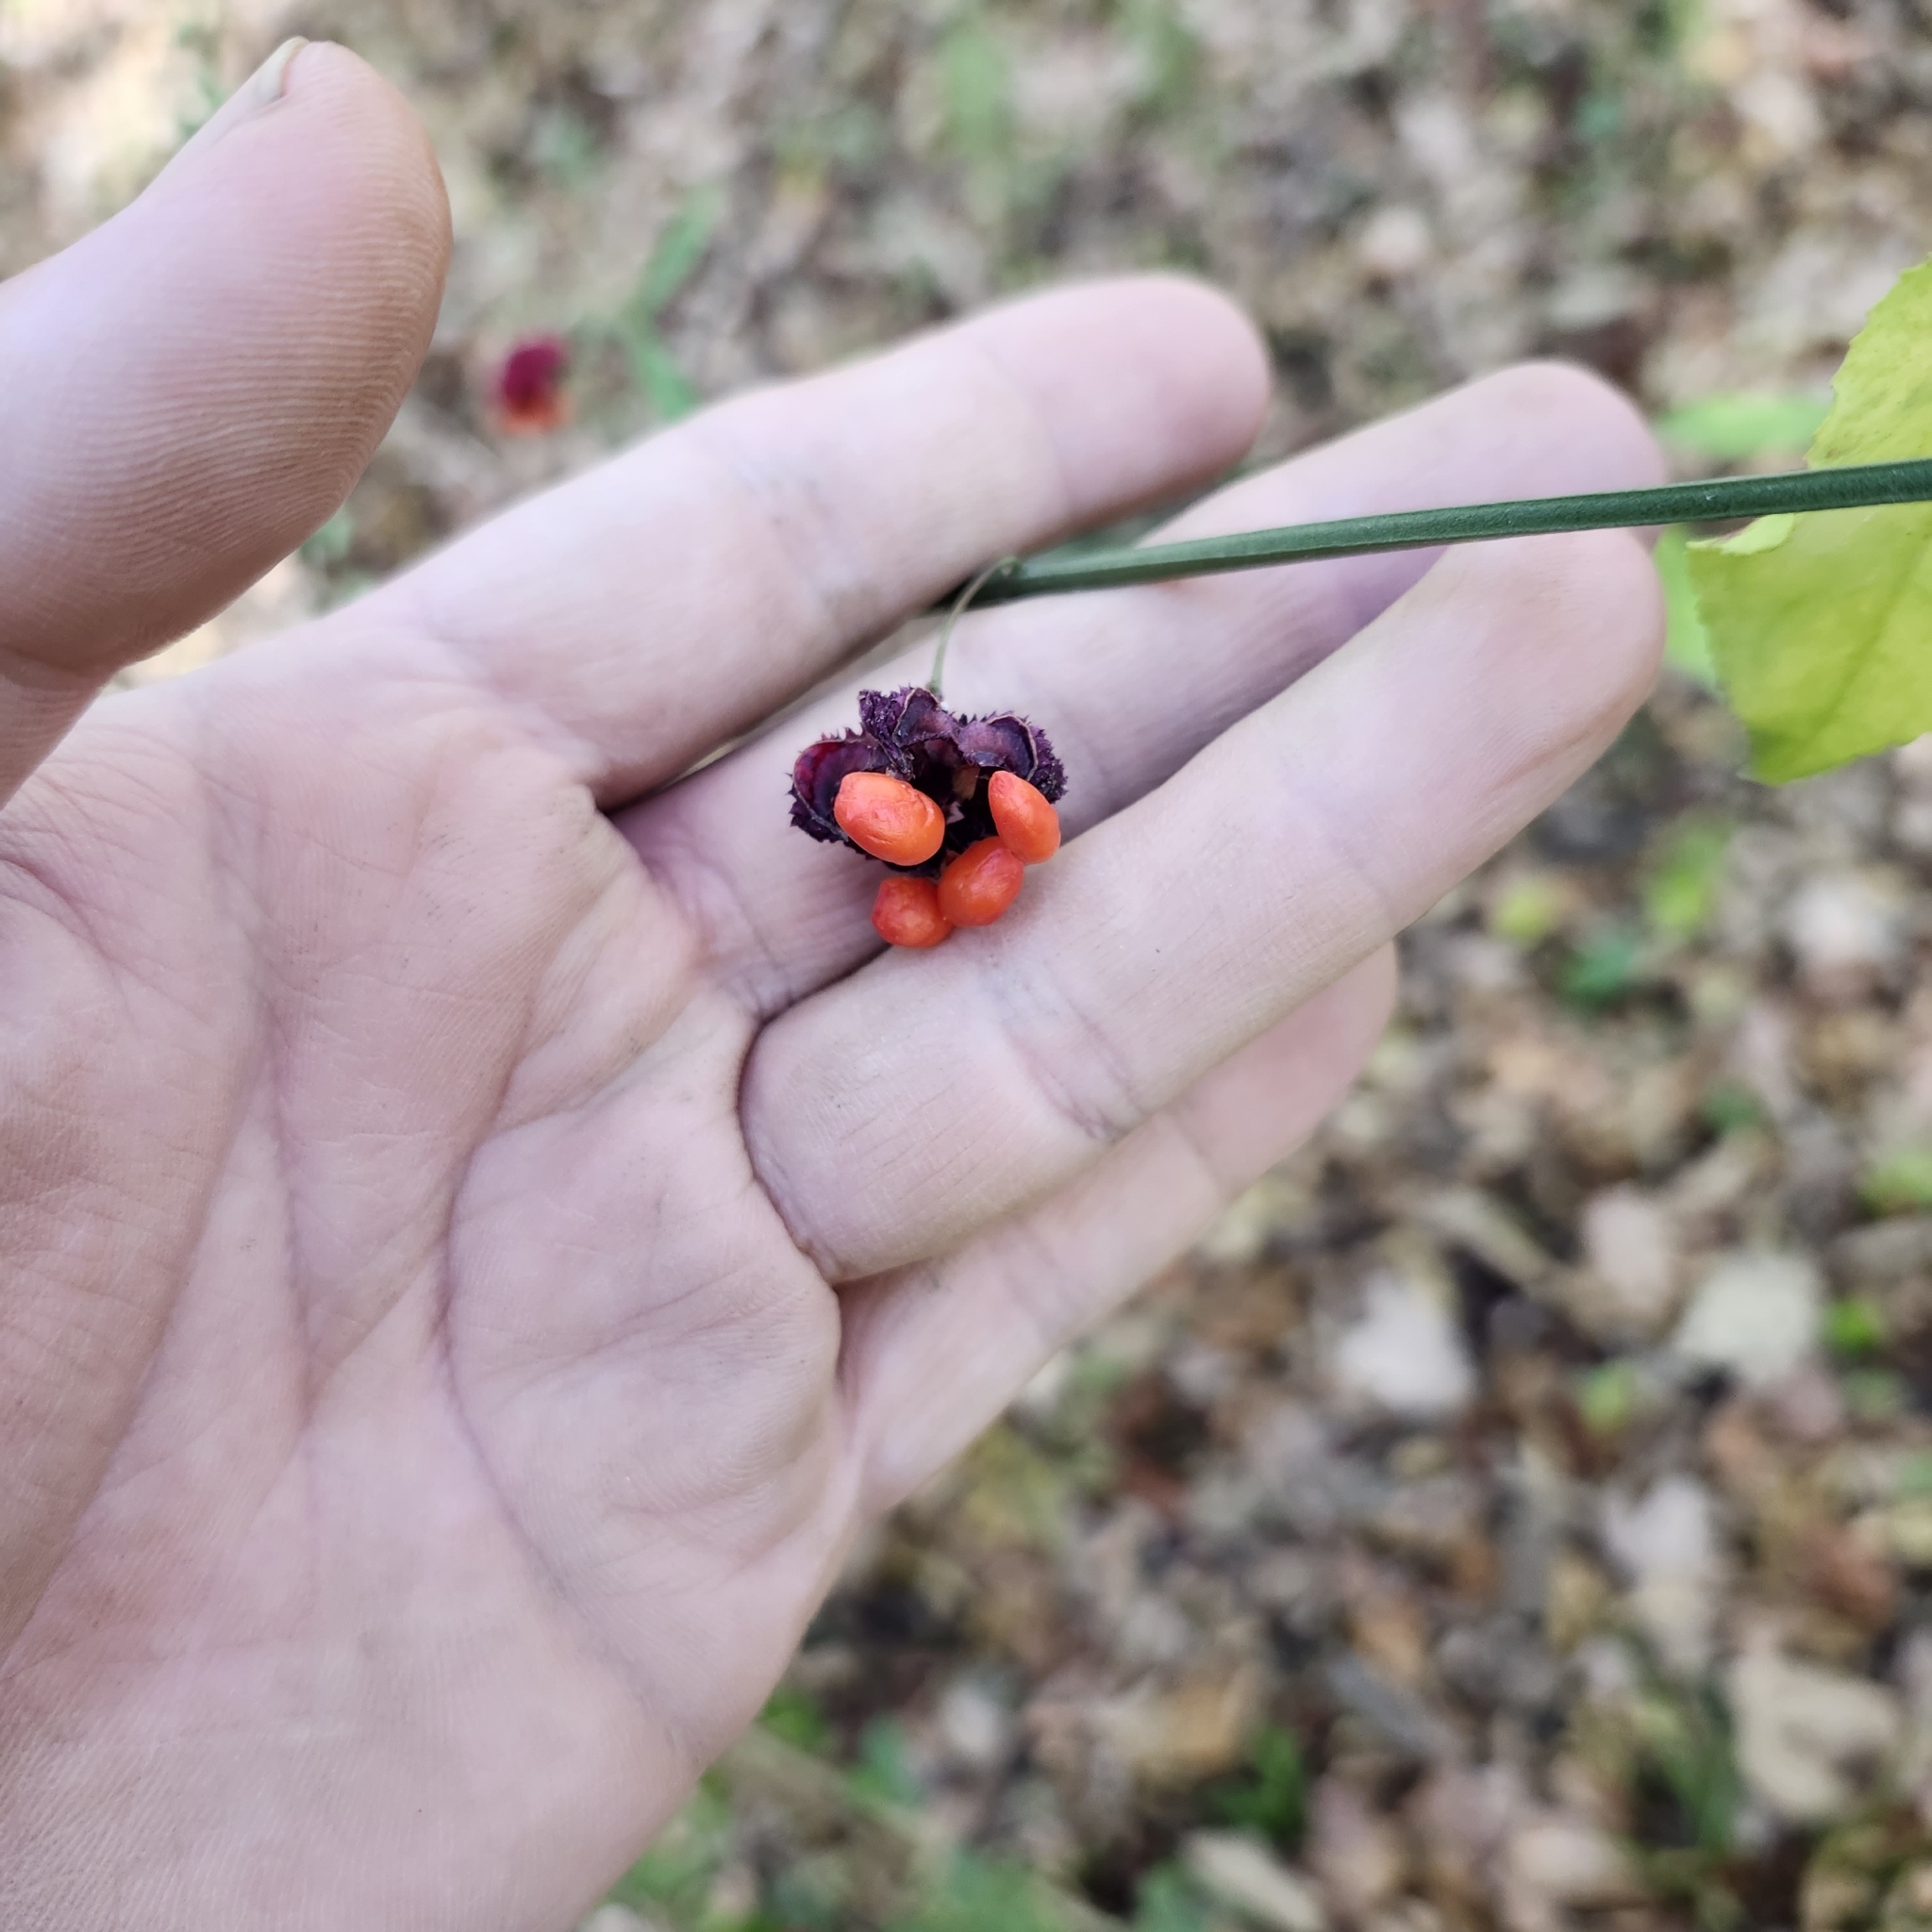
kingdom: Plantae
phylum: Tracheophyta
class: Magnoliopsida
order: Celastrales
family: Celastraceae
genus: Euonymus
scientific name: Euonymus americanus
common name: Bursting-heart
